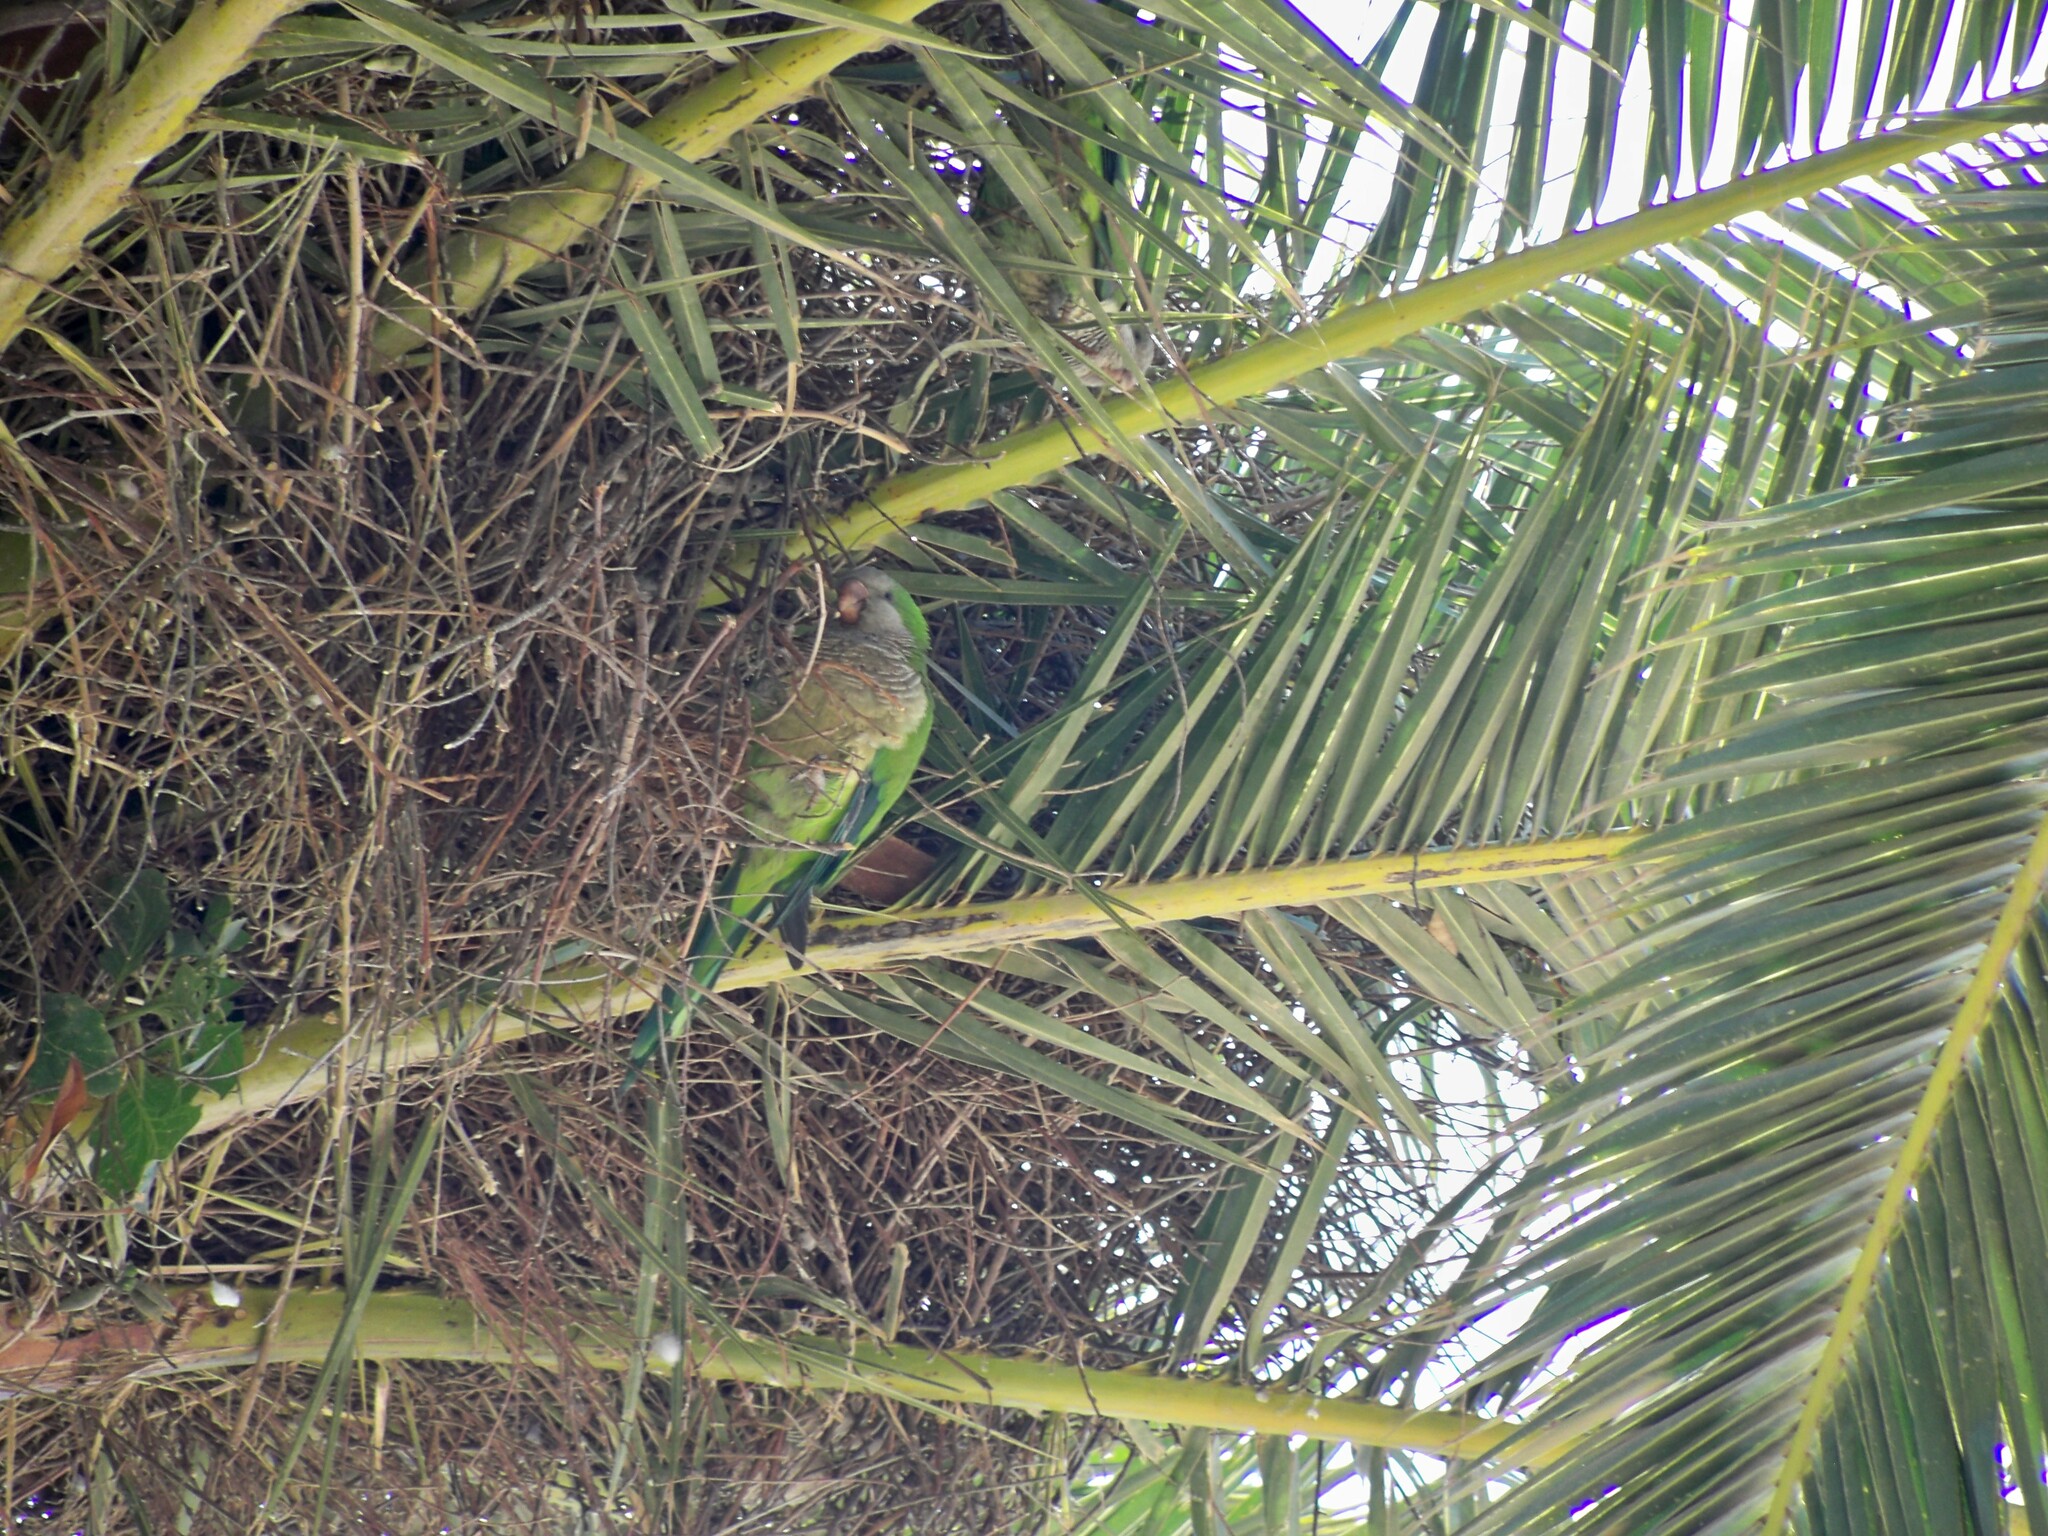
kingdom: Animalia
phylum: Chordata
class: Aves
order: Psittaciformes
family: Psittacidae
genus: Myiopsitta
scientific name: Myiopsitta monachus
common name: Monk parakeet
